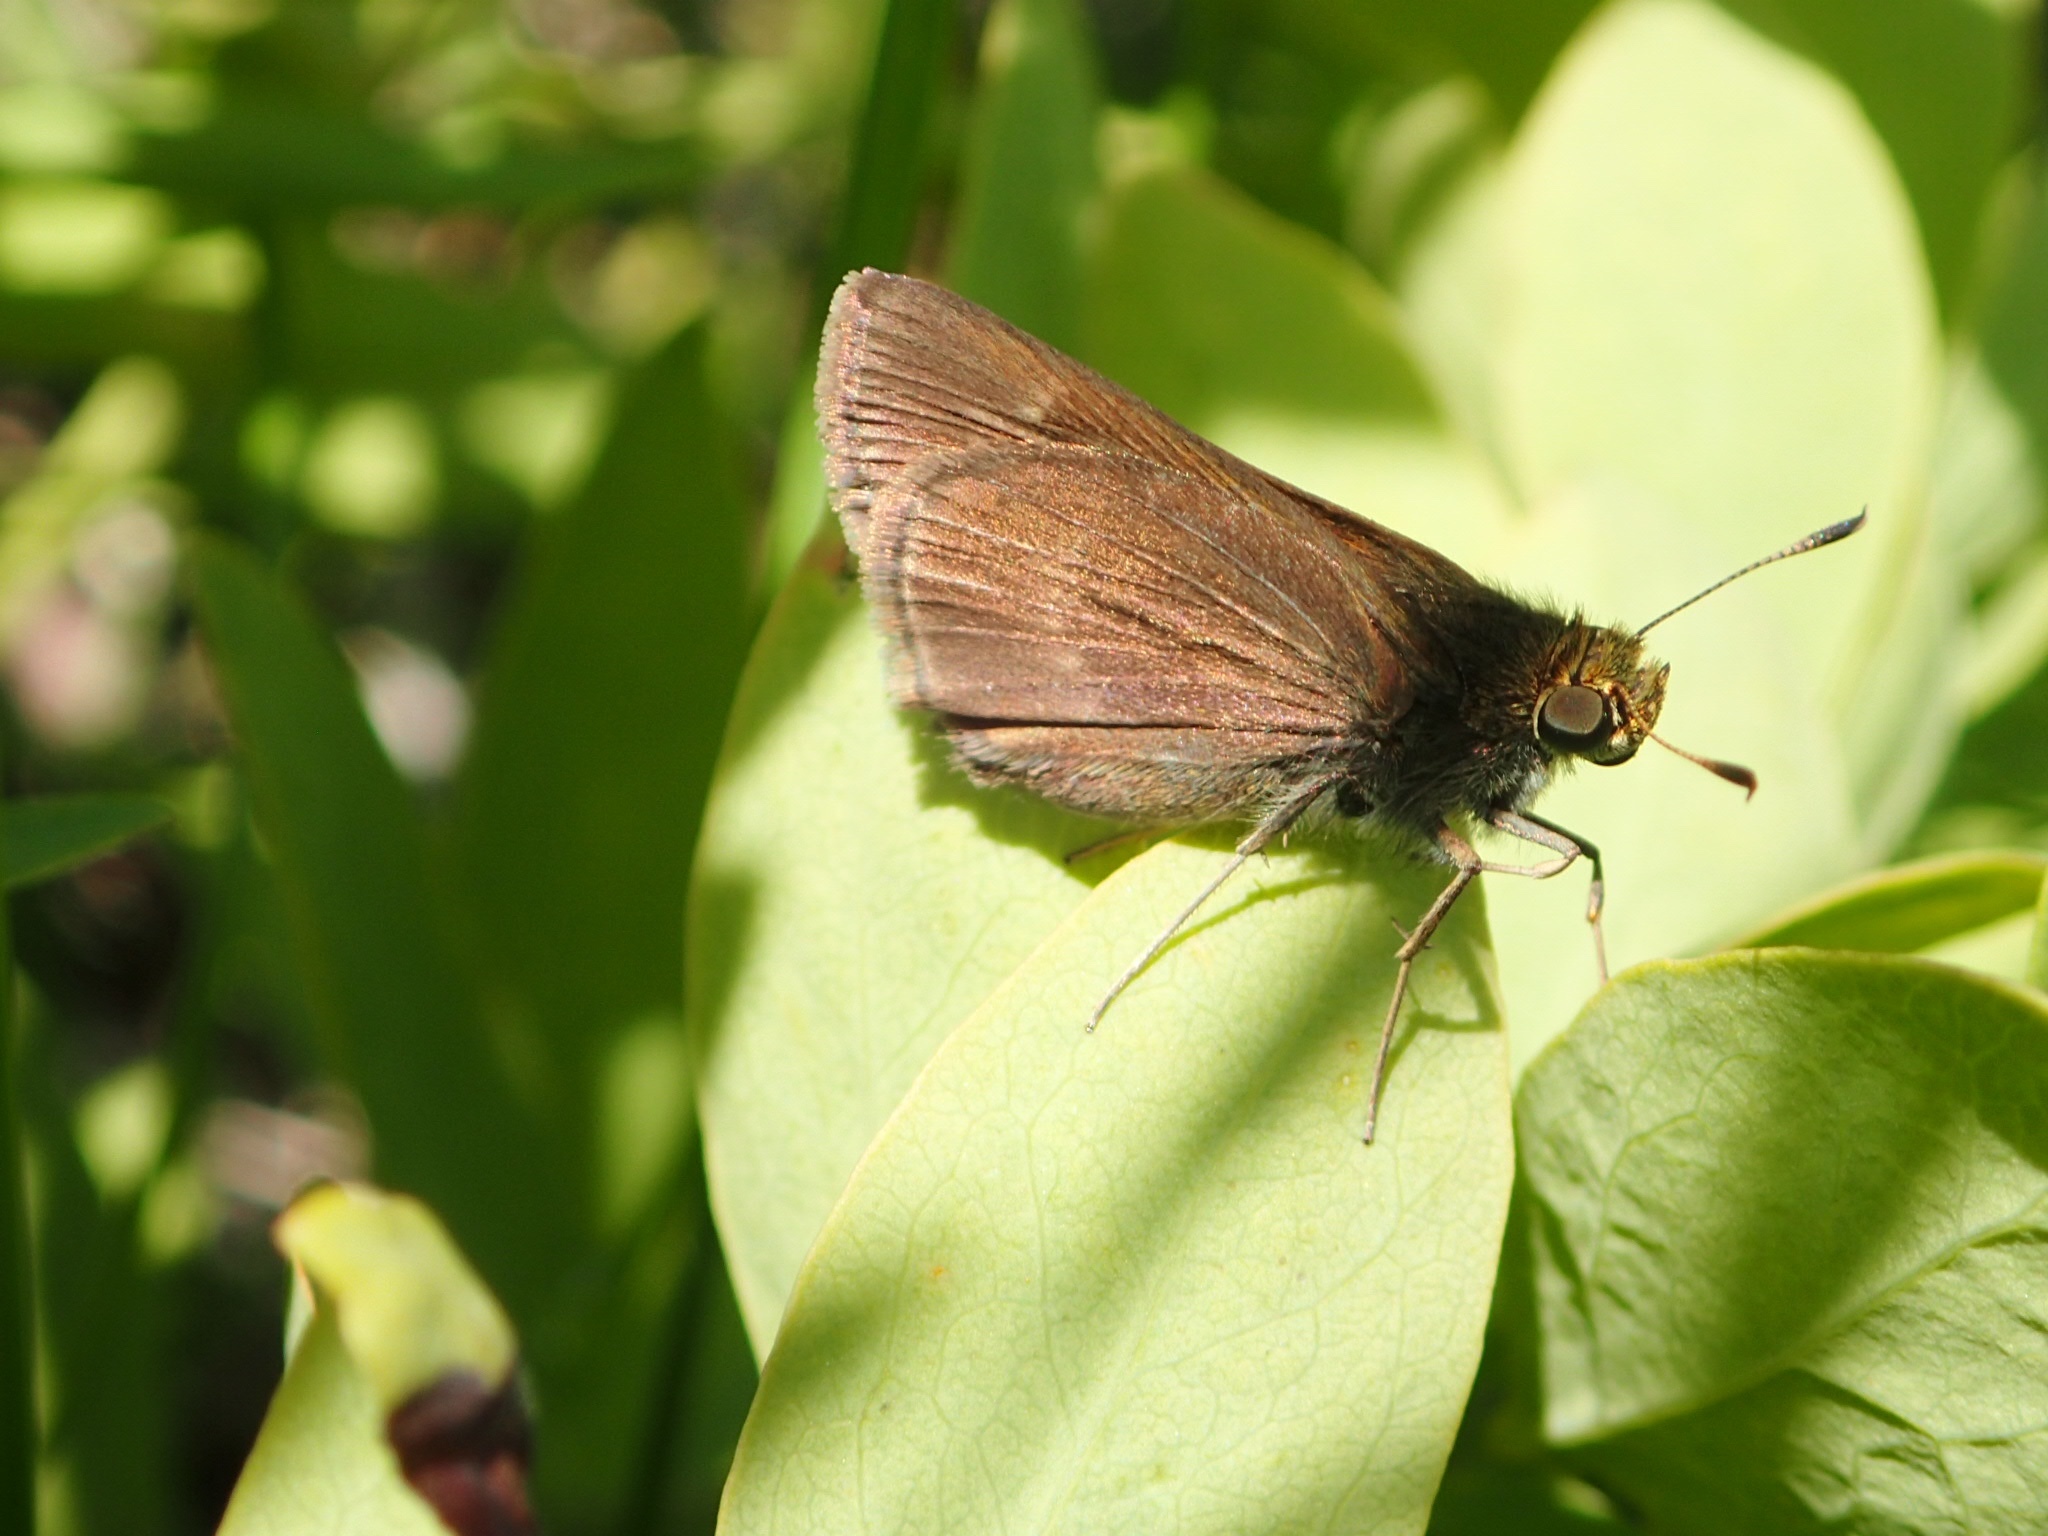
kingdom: Animalia
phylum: Arthropoda
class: Insecta
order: Lepidoptera
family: Hesperiidae
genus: Euphyes
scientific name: Euphyes vestris
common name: Dun skipper
